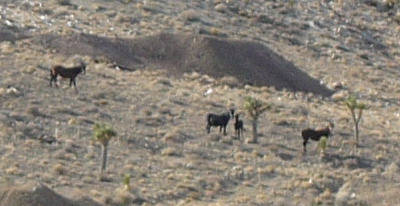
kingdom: Animalia
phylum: Chordata
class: Mammalia
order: Perissodactyla
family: Equidae
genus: Equus
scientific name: Equus caballus
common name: Horse
